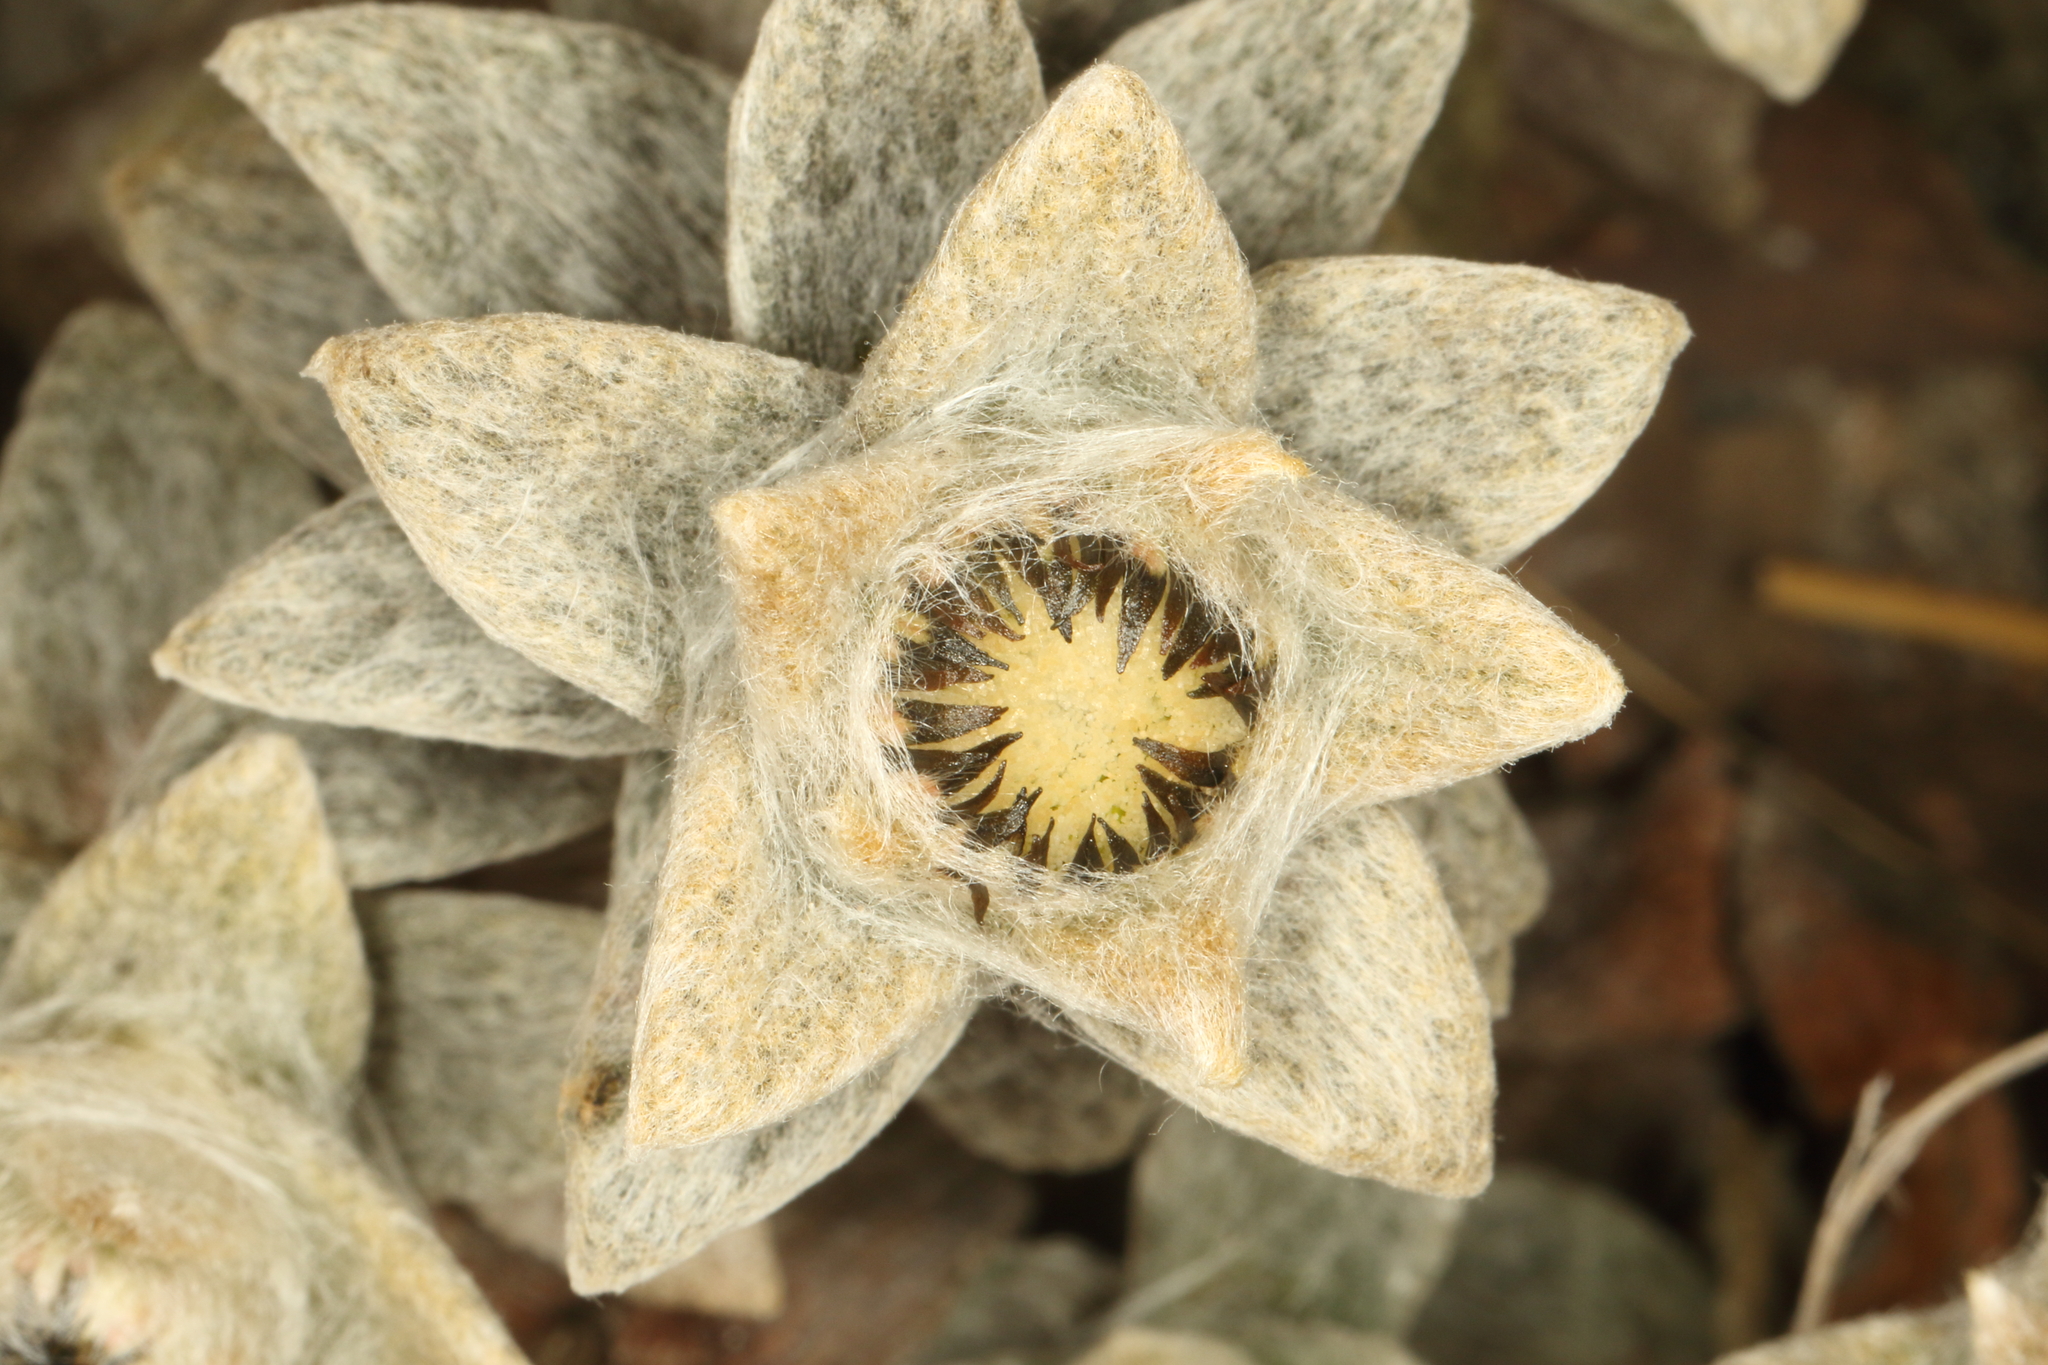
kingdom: Plantae
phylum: Tracheophyta
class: Magnoliopsida
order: Asterales
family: Asteraceae
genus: Haastia
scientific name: Haastia sinclairii
